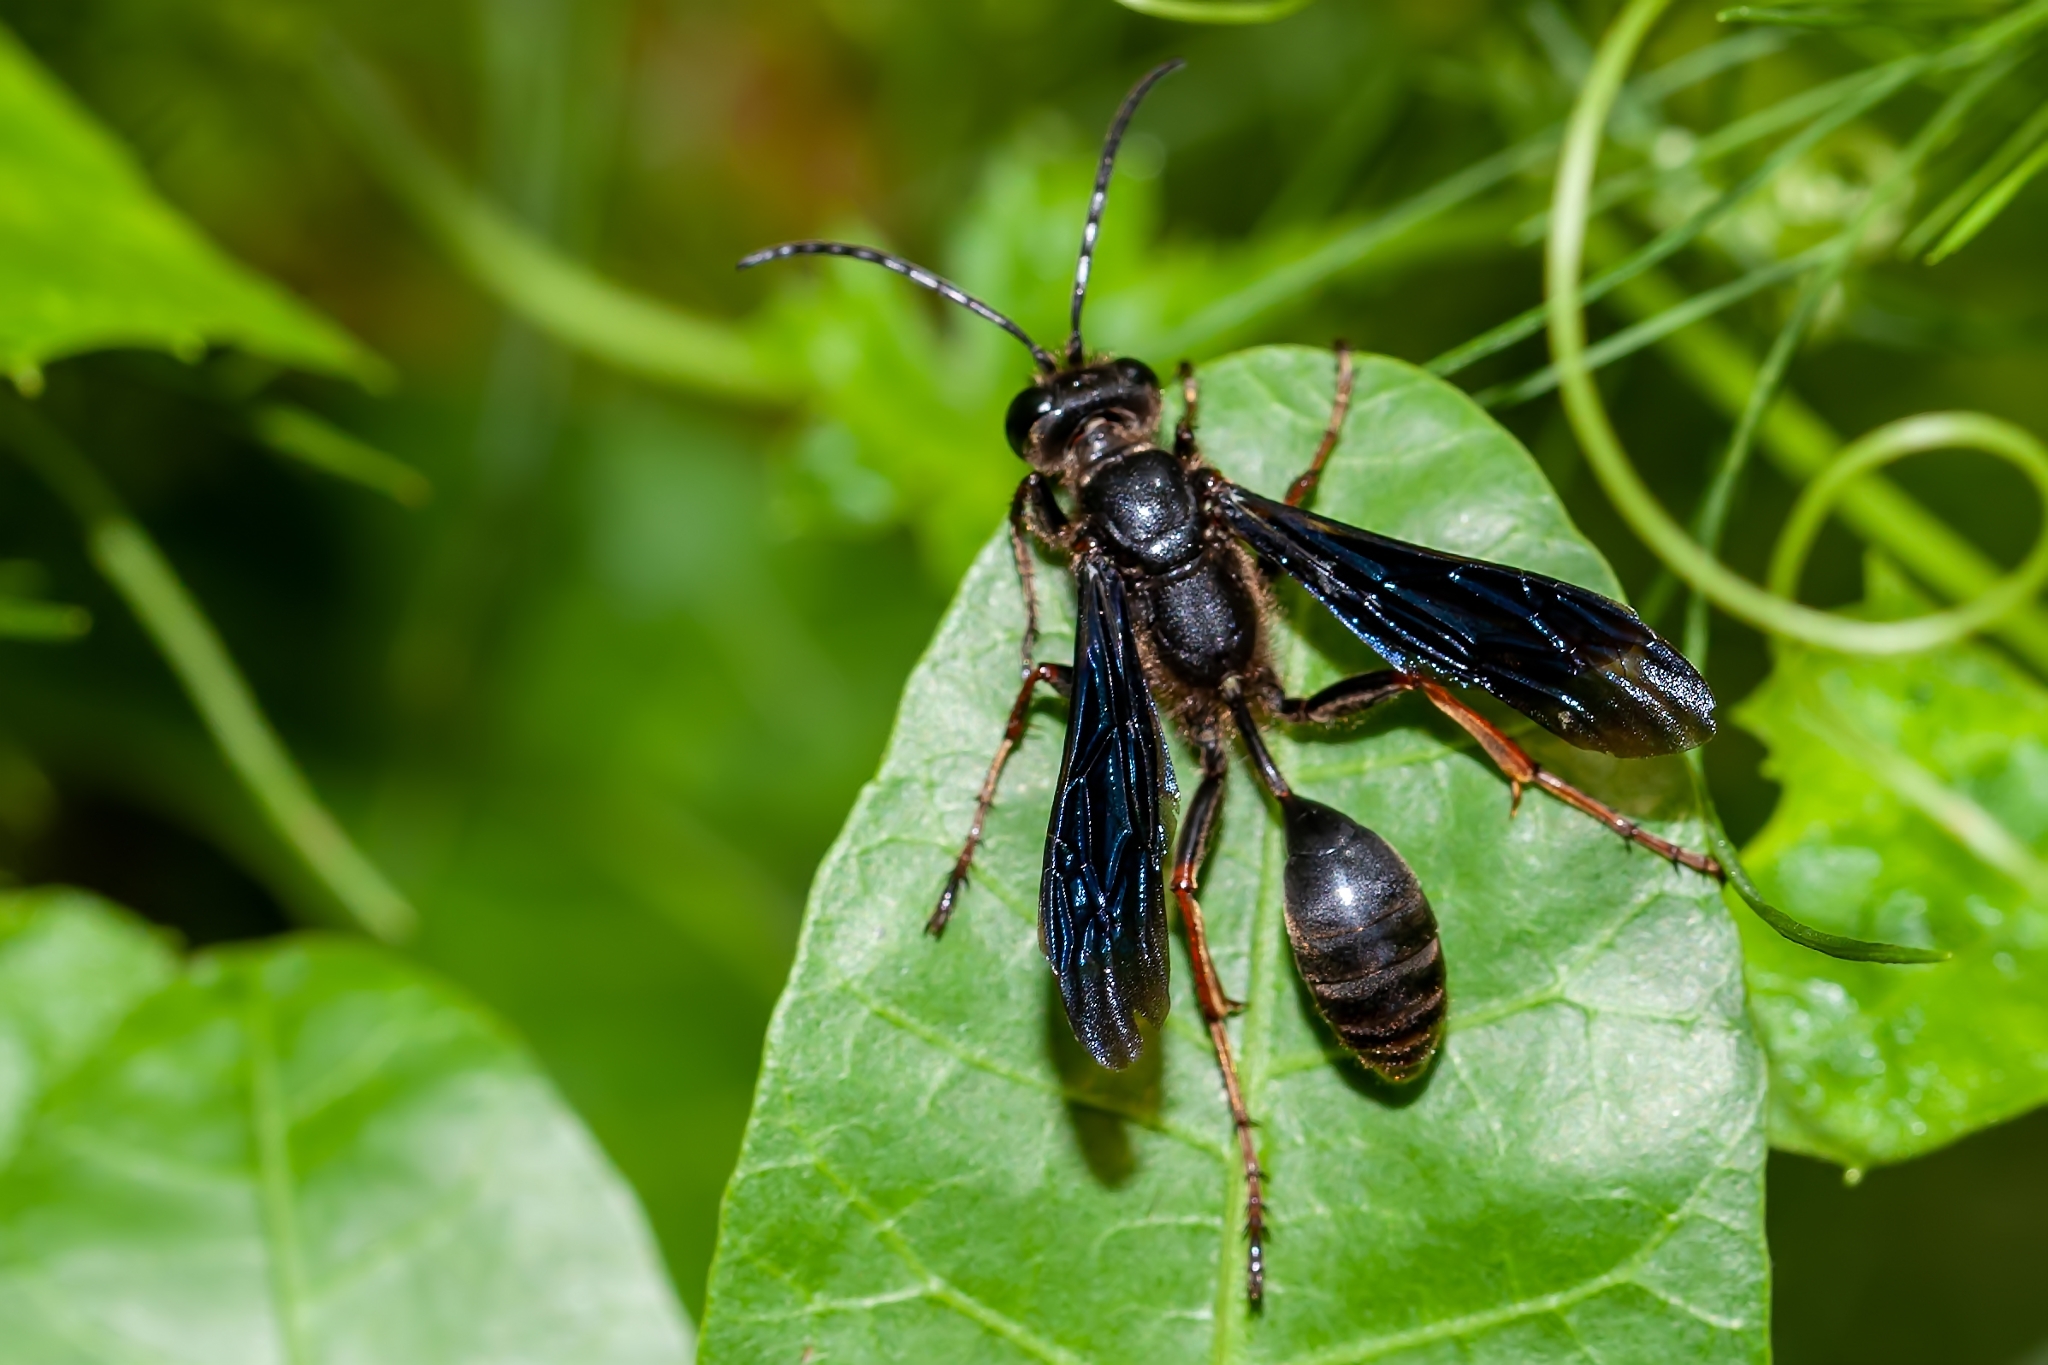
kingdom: Animalia
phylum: Arthropoda
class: Insecta
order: Hymenoptera
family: Sphecidae
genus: Isodontia
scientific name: Isodontia auripes
